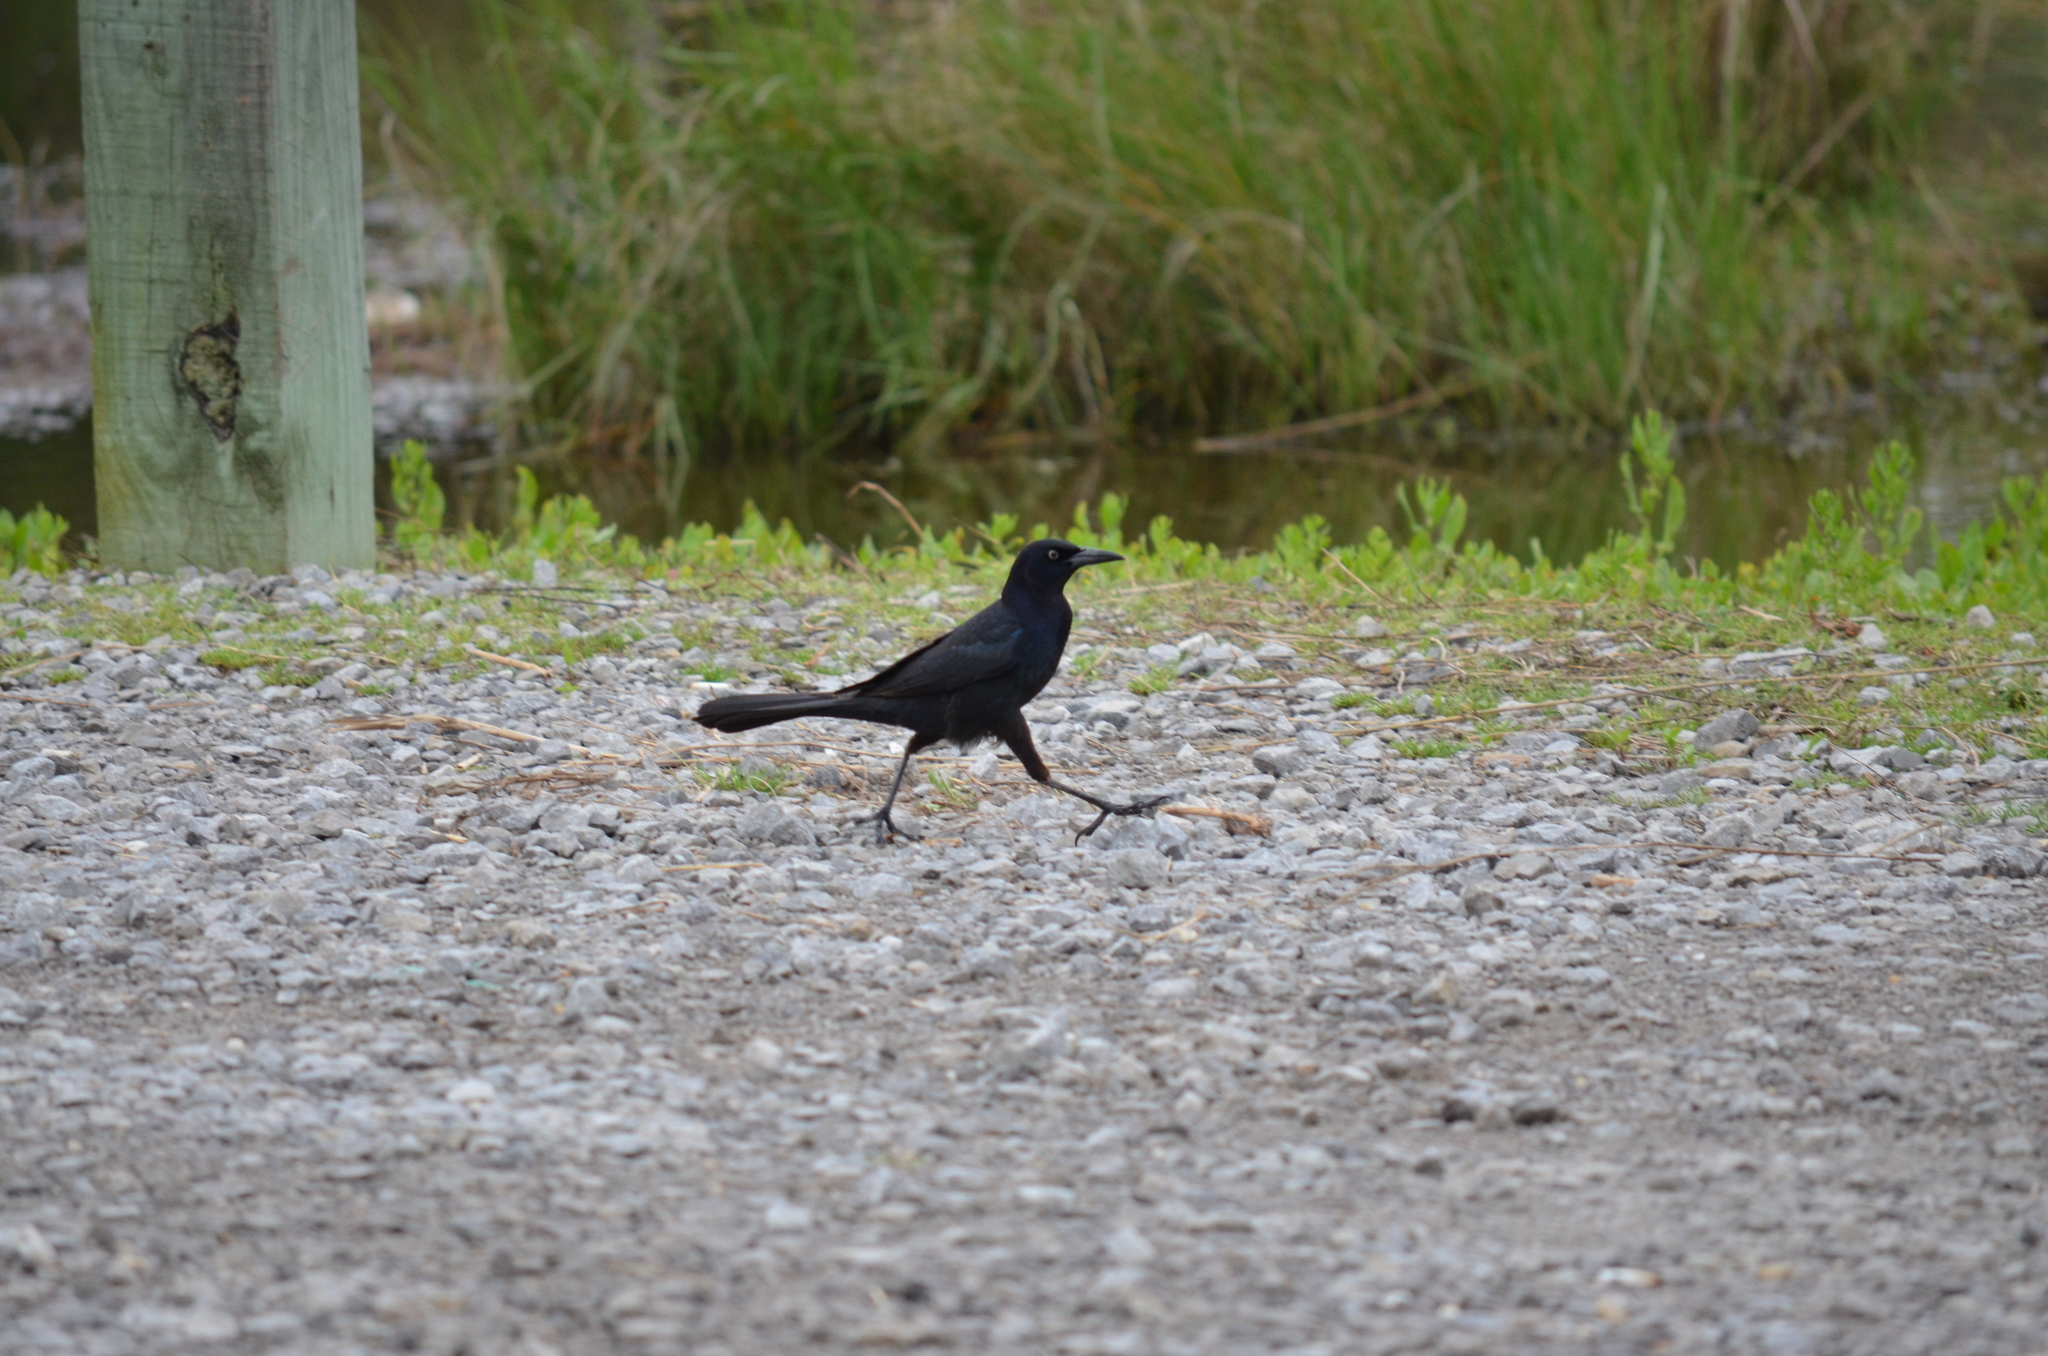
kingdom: Animalia
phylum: Chordata
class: Aves
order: Passeriformes
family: Icteridae
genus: Quiscalus
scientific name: Quiscalus major
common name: Boat-tailed grackle
